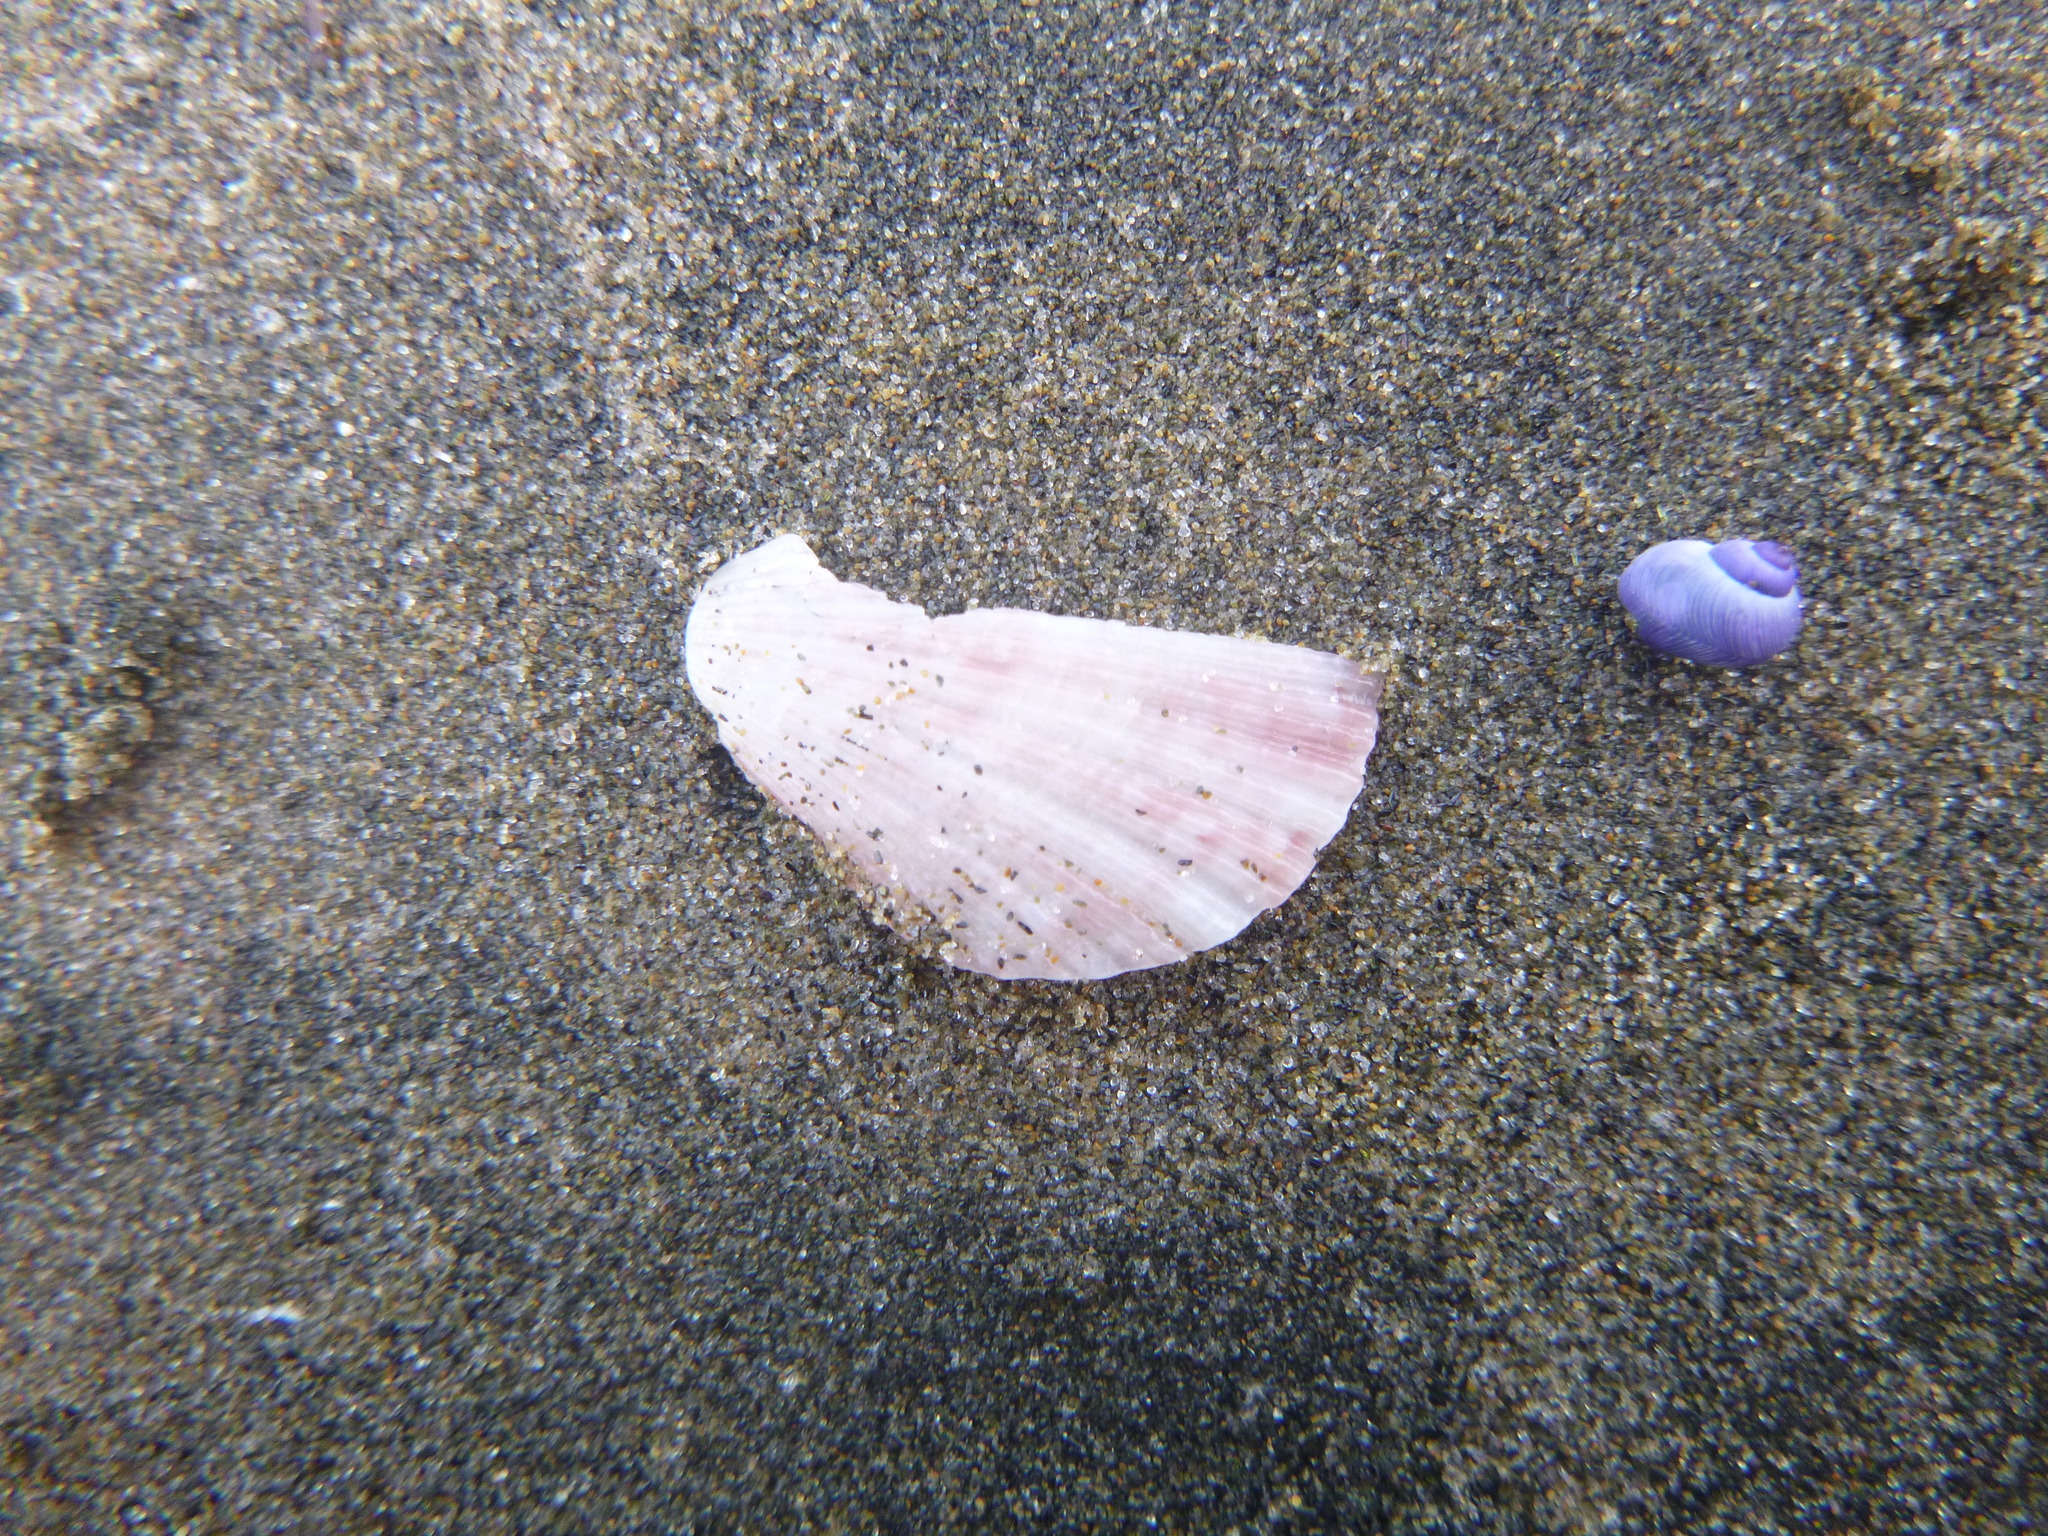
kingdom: Animalia
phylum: Mollusca
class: Bivalvia
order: Pectinida
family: Pectinidae
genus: Talochlamys
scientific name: Talochlamys zelandiae
